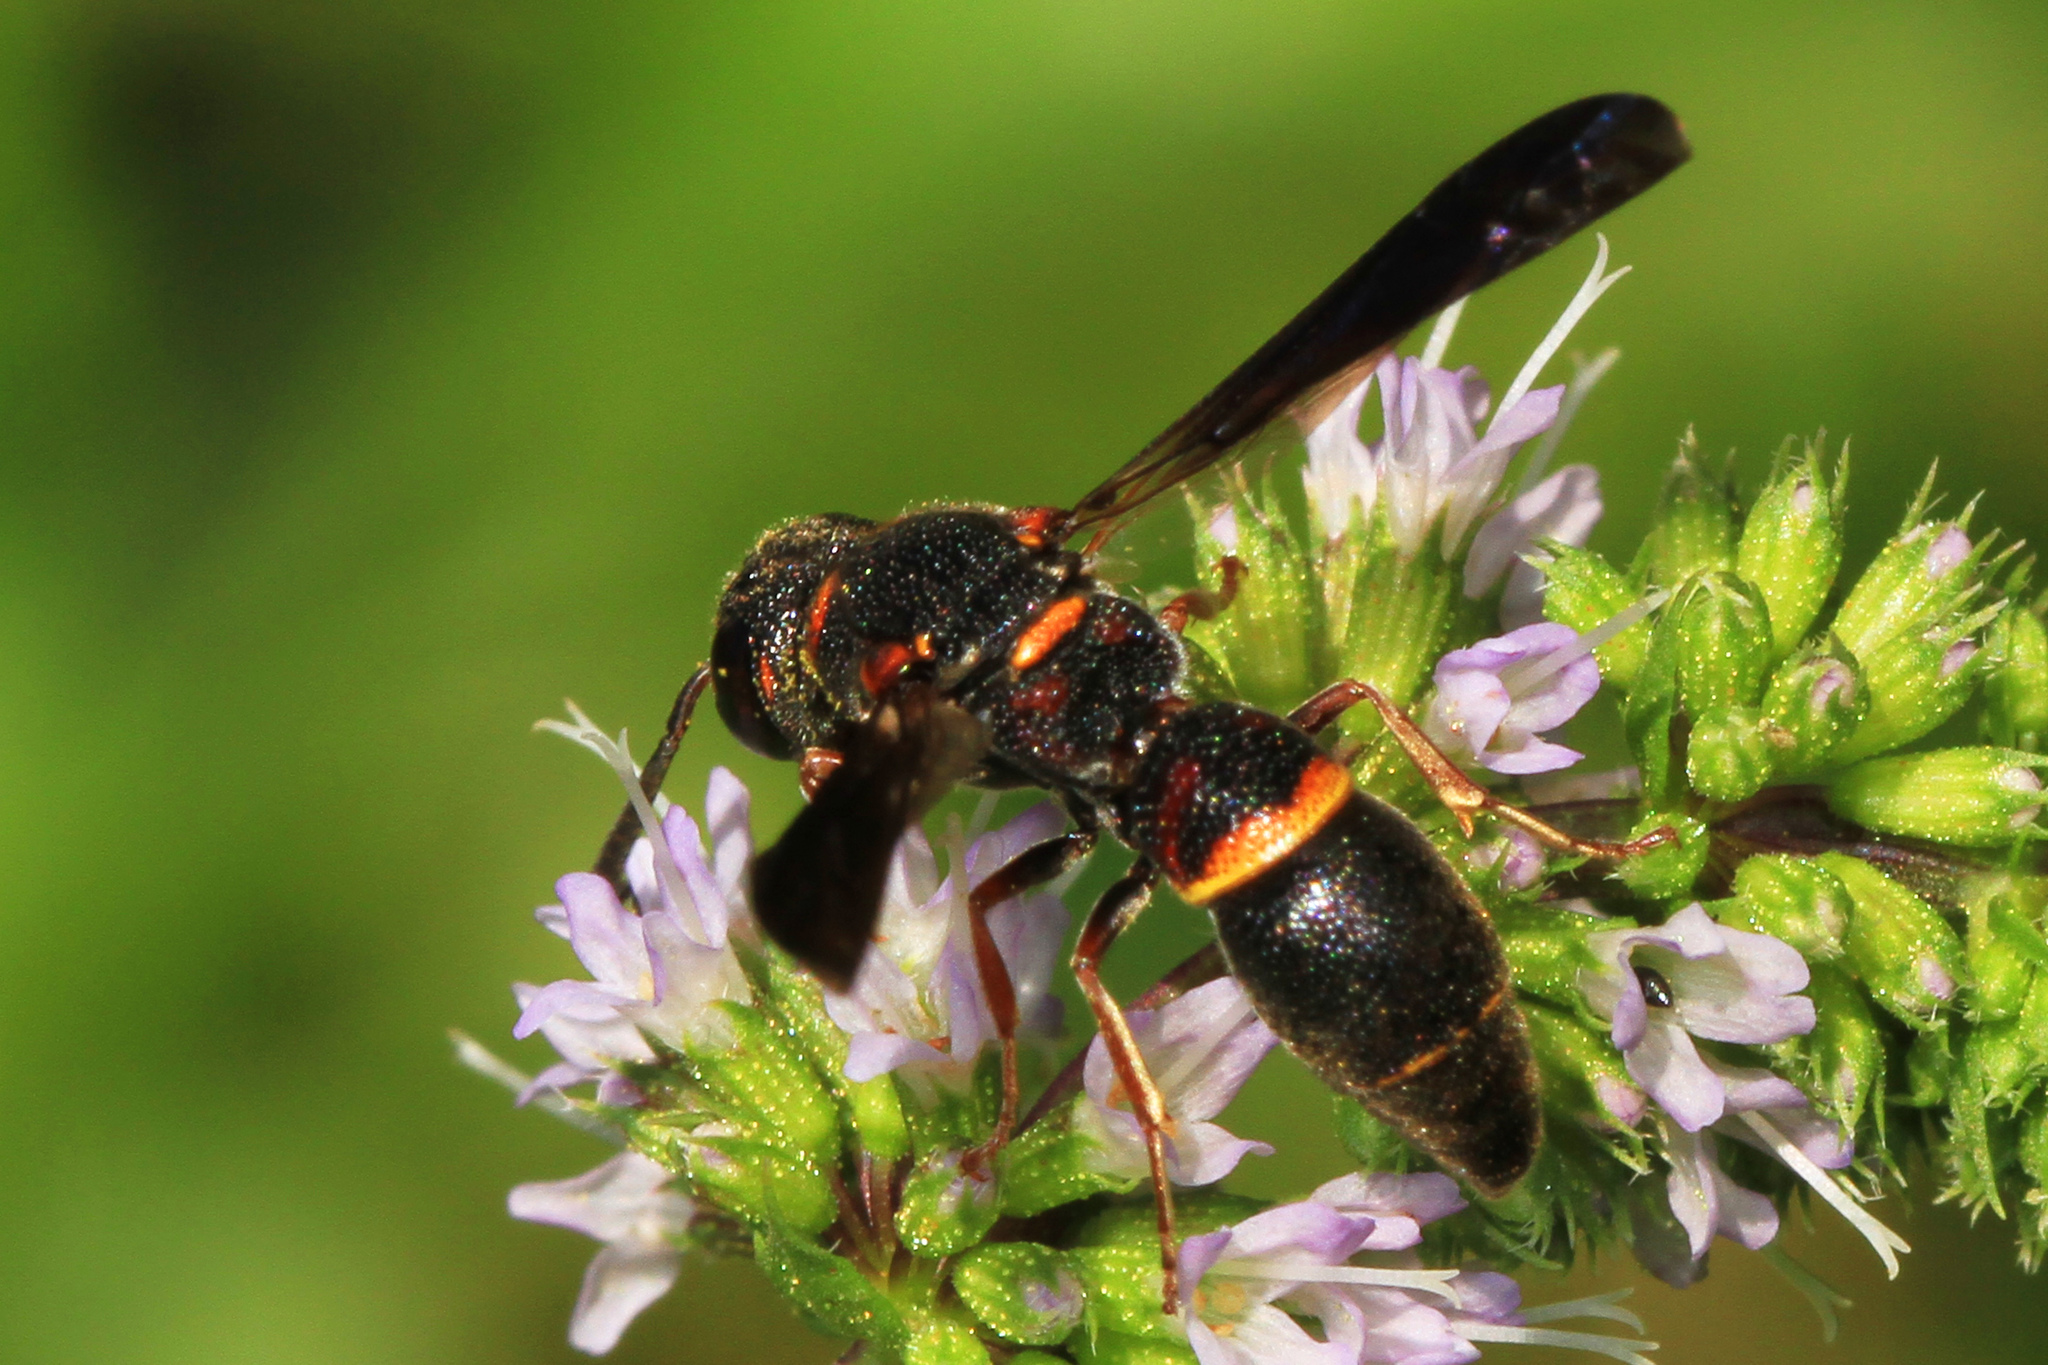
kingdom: Animalia
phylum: Arthropoda
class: Insecta
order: Hymenoptera
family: Eumenidae
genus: Parancistrocerus
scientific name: Parancistrocerus histrio
